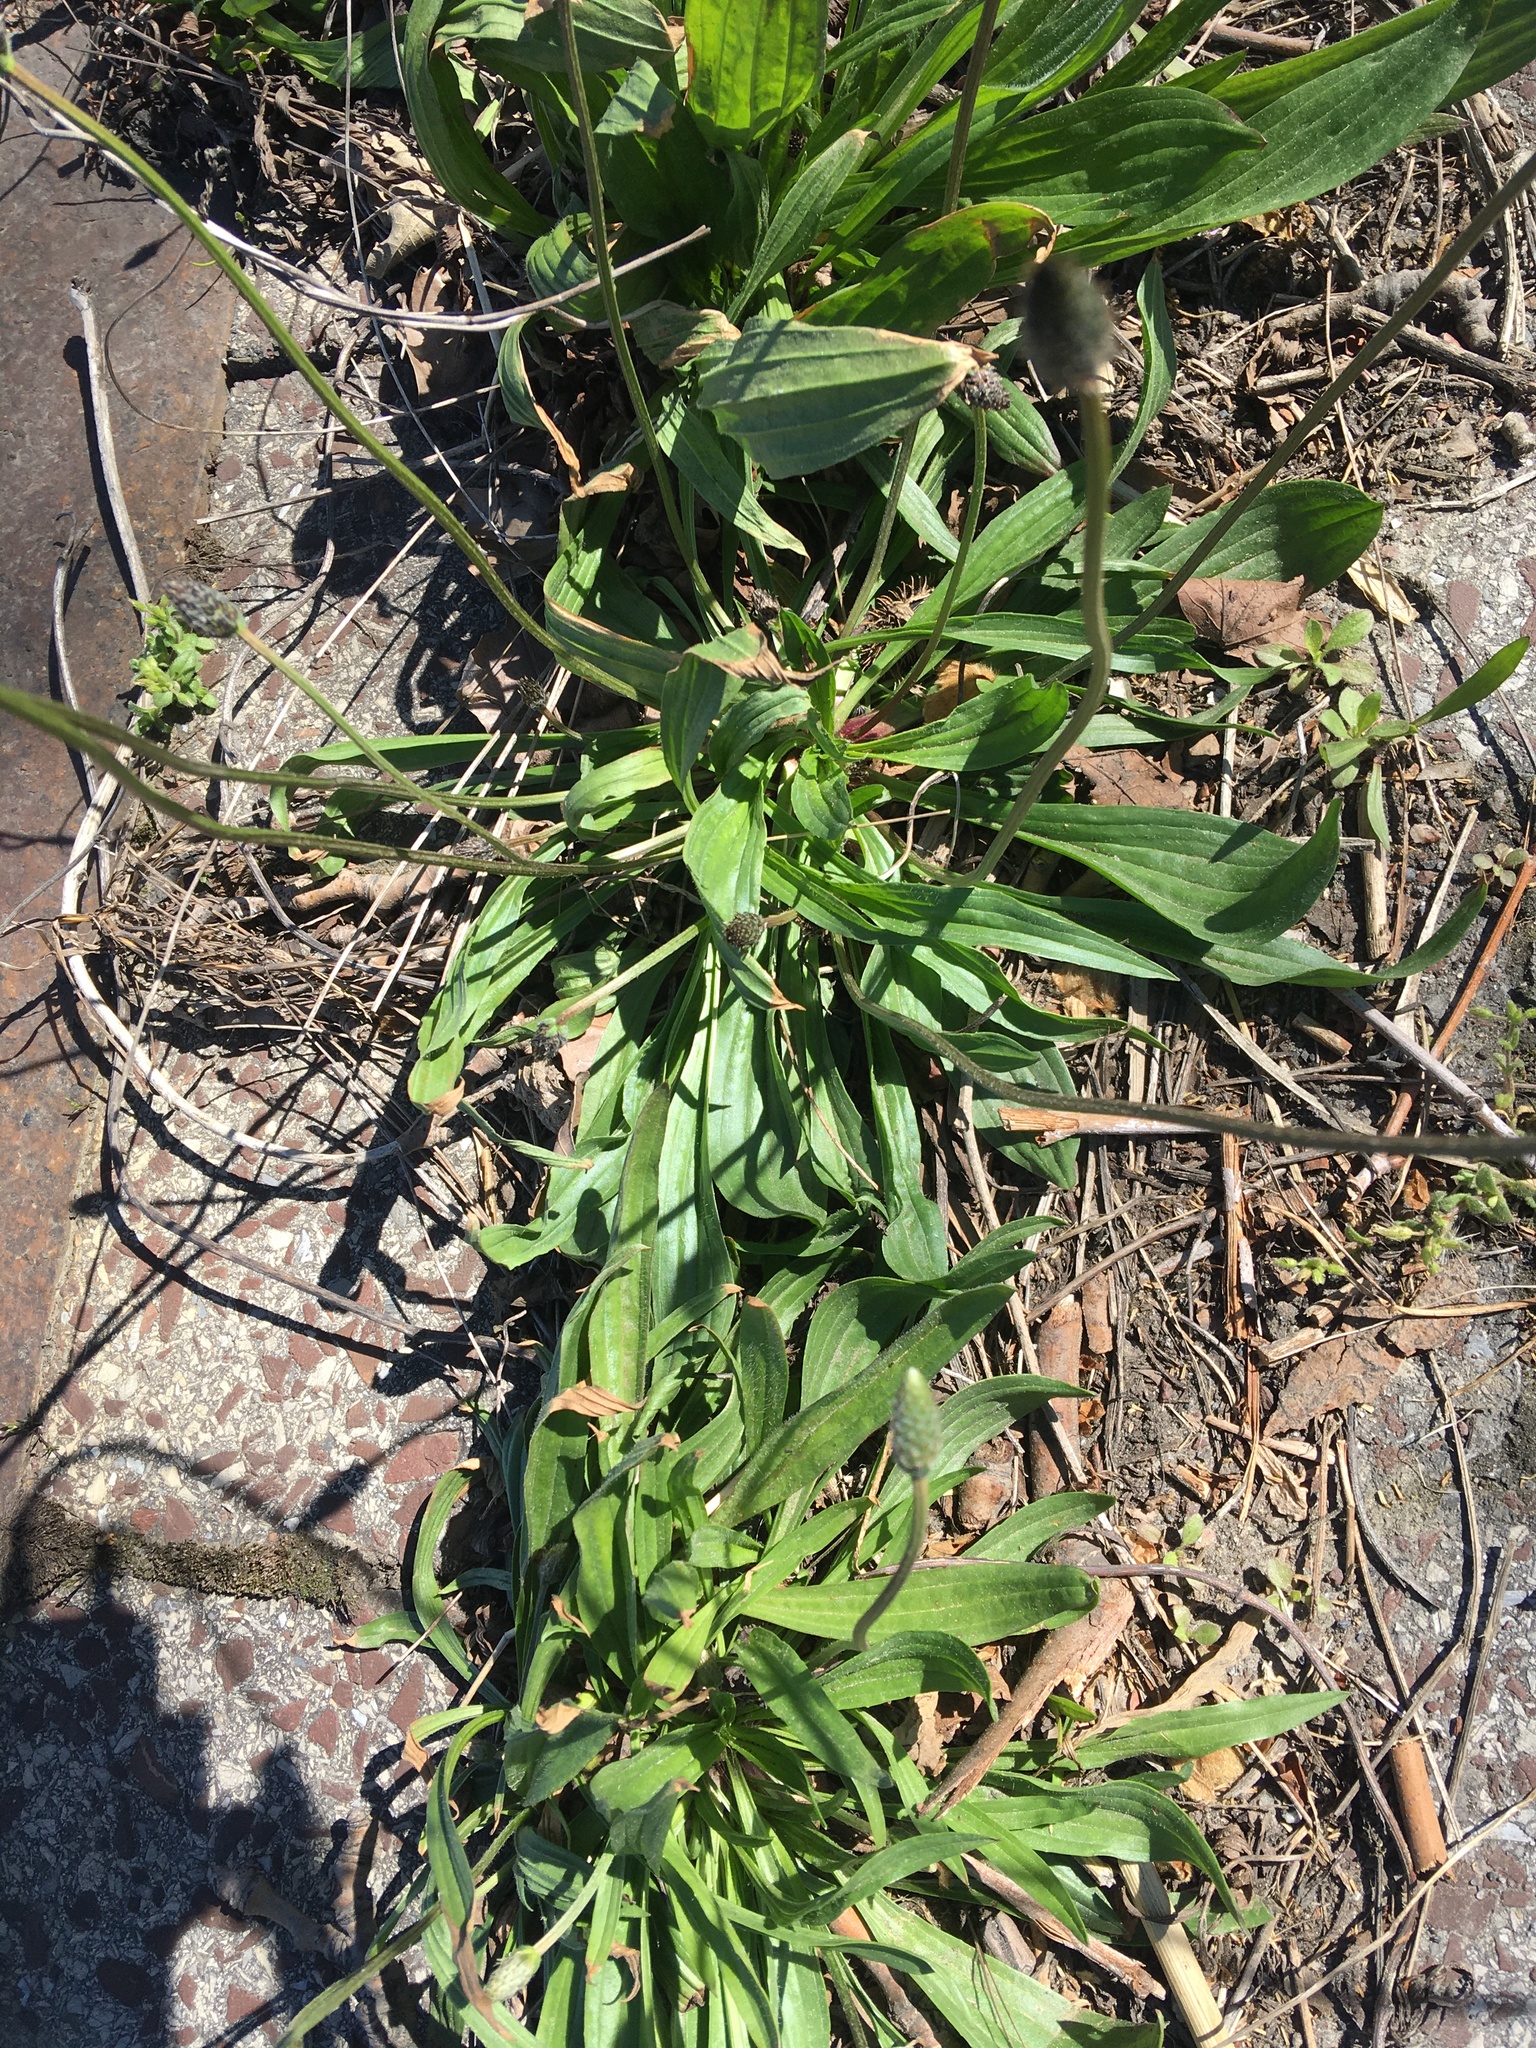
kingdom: Plantae
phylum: Tracheophyta
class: Magnoliopsida
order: Lamiales
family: Plantaginaceae
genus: Plantago
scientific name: Plantago lanceolata
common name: Ribwort plantain
